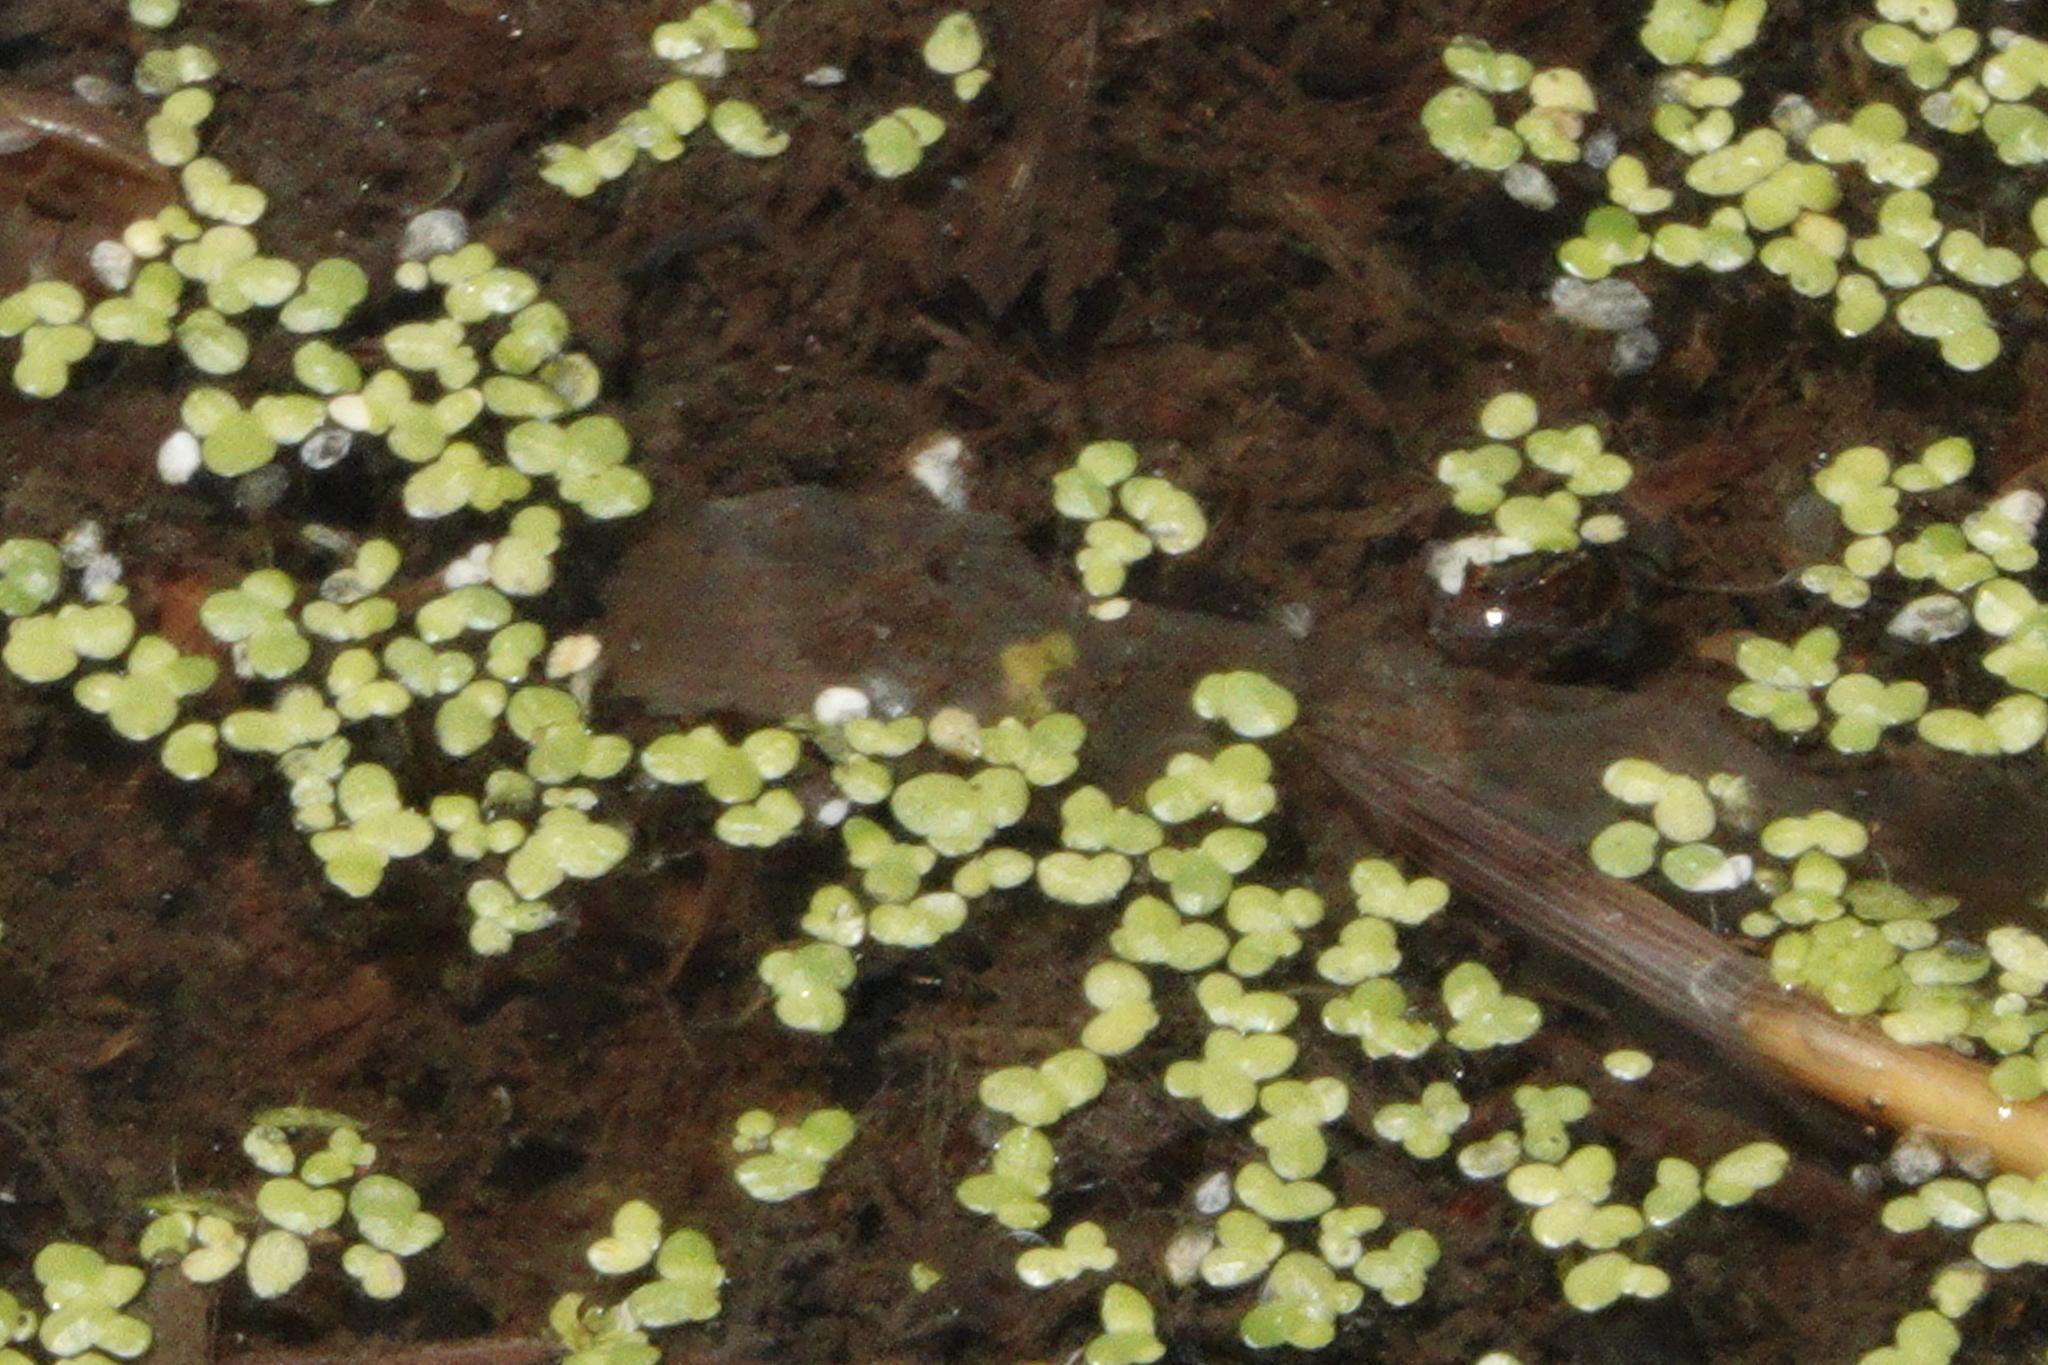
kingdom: Plantae
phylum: Tracheophyta
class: Liliopsida
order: Alismatales
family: Araceae
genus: Lemna
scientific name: Lemna minor
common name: Common duckweed
